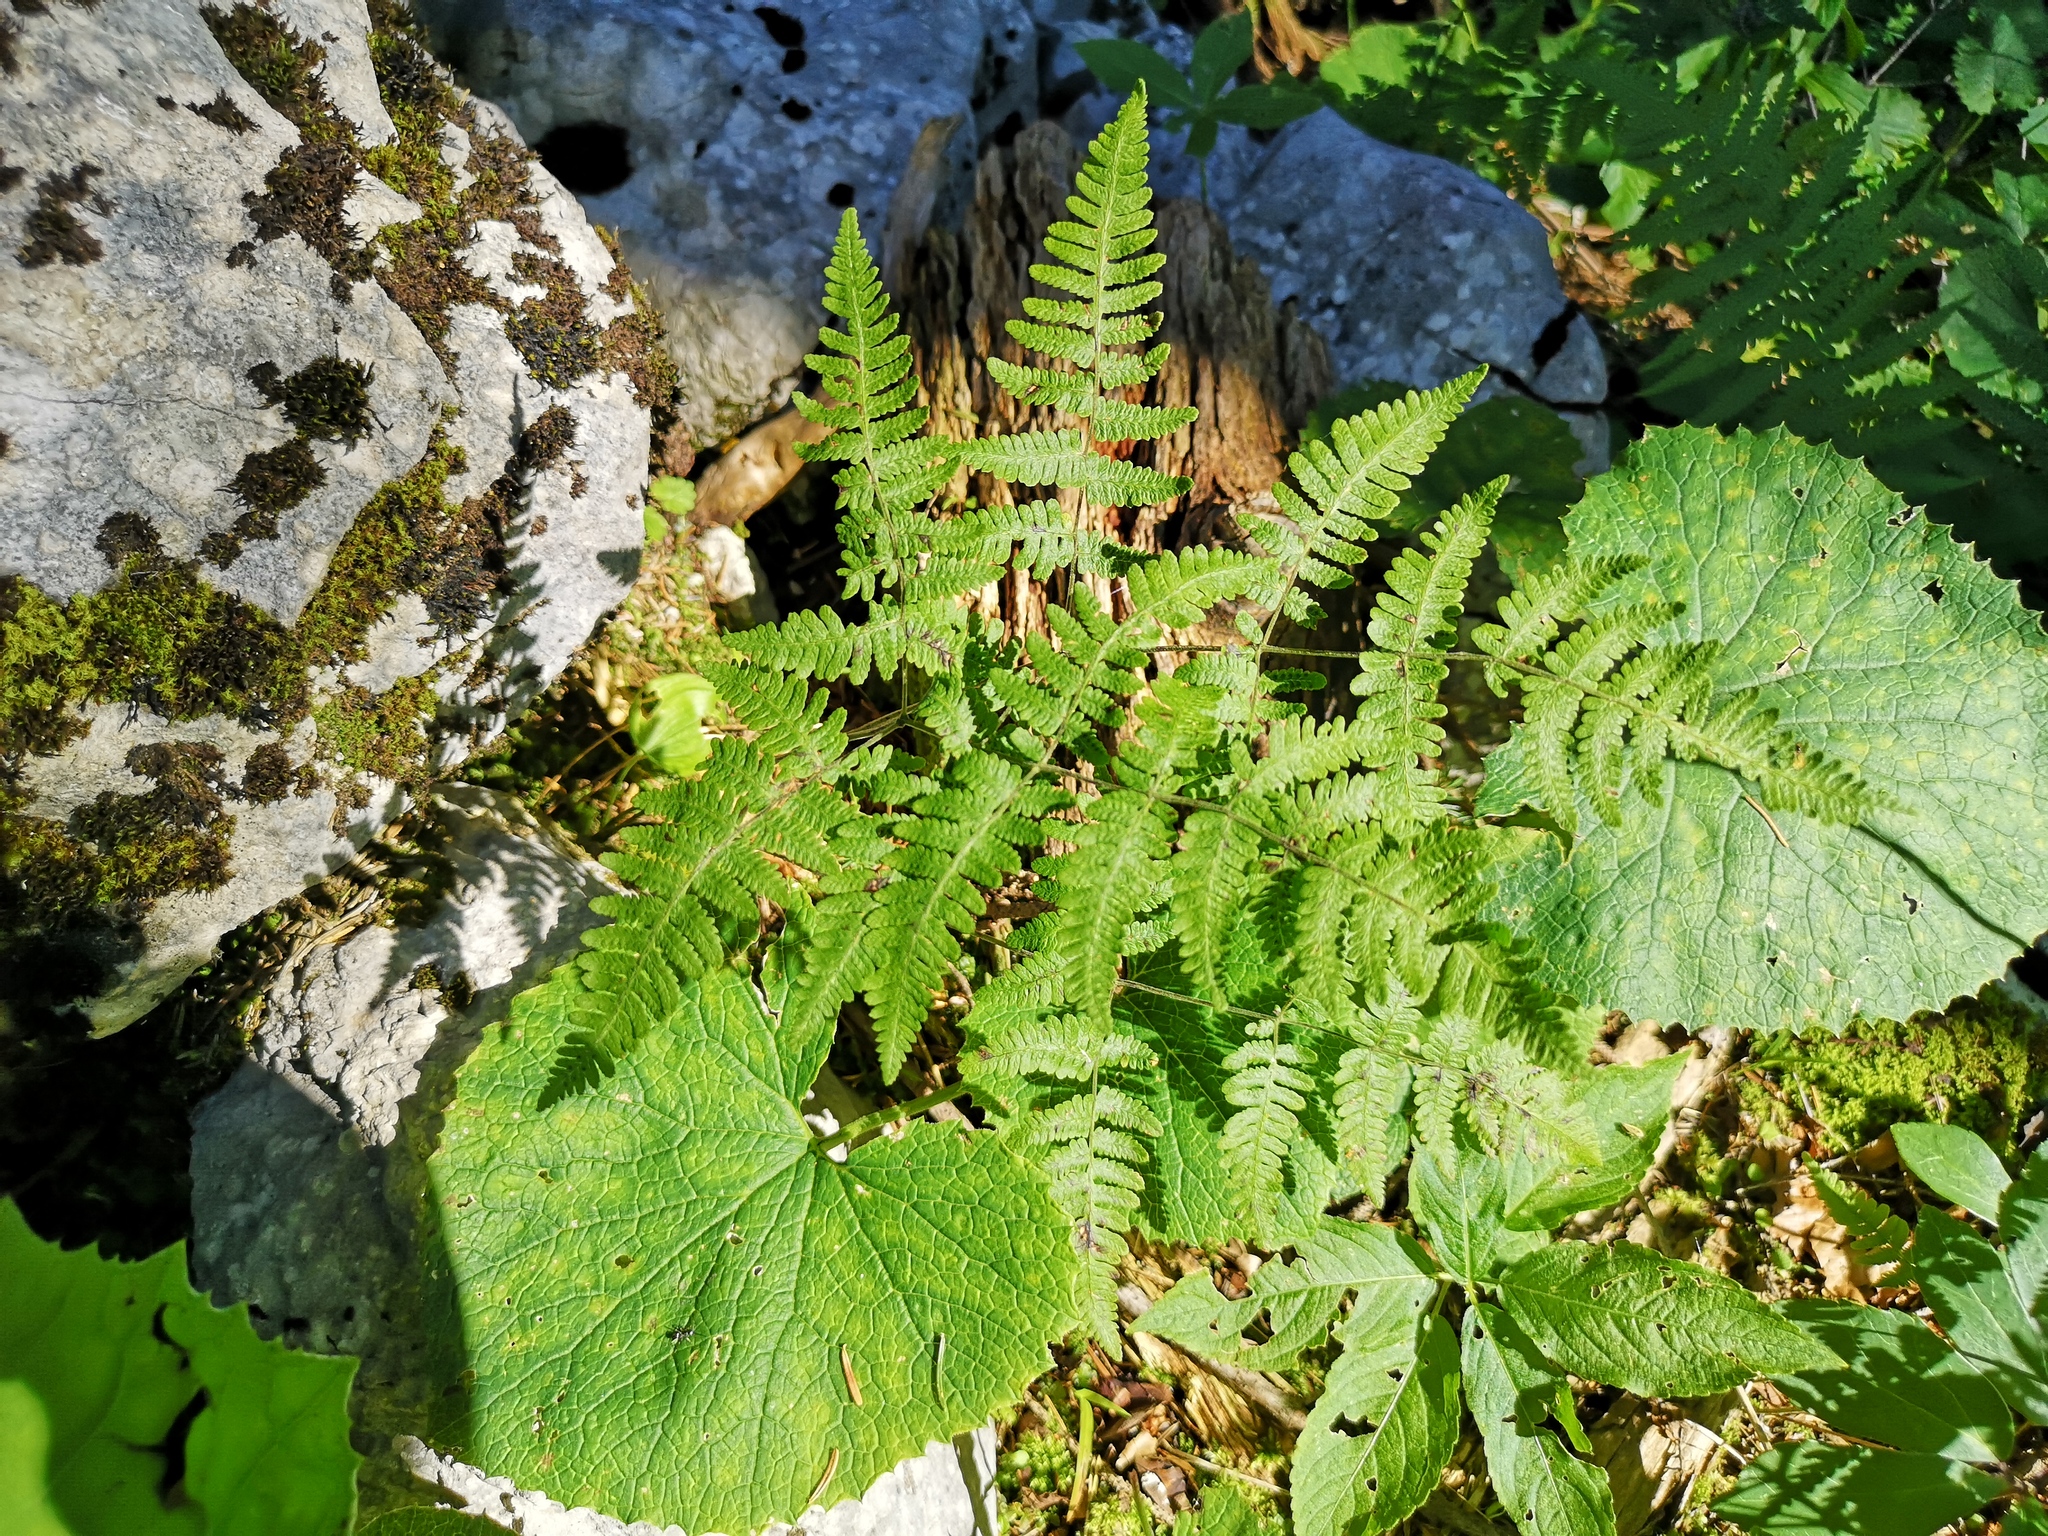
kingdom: Plantae
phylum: Tracheophyta
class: Polypodiopsida
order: Polypodiales
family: Cystopteridaceae
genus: Gymnocarpium
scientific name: Gymnocarpium robertianum
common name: Limestone fern
